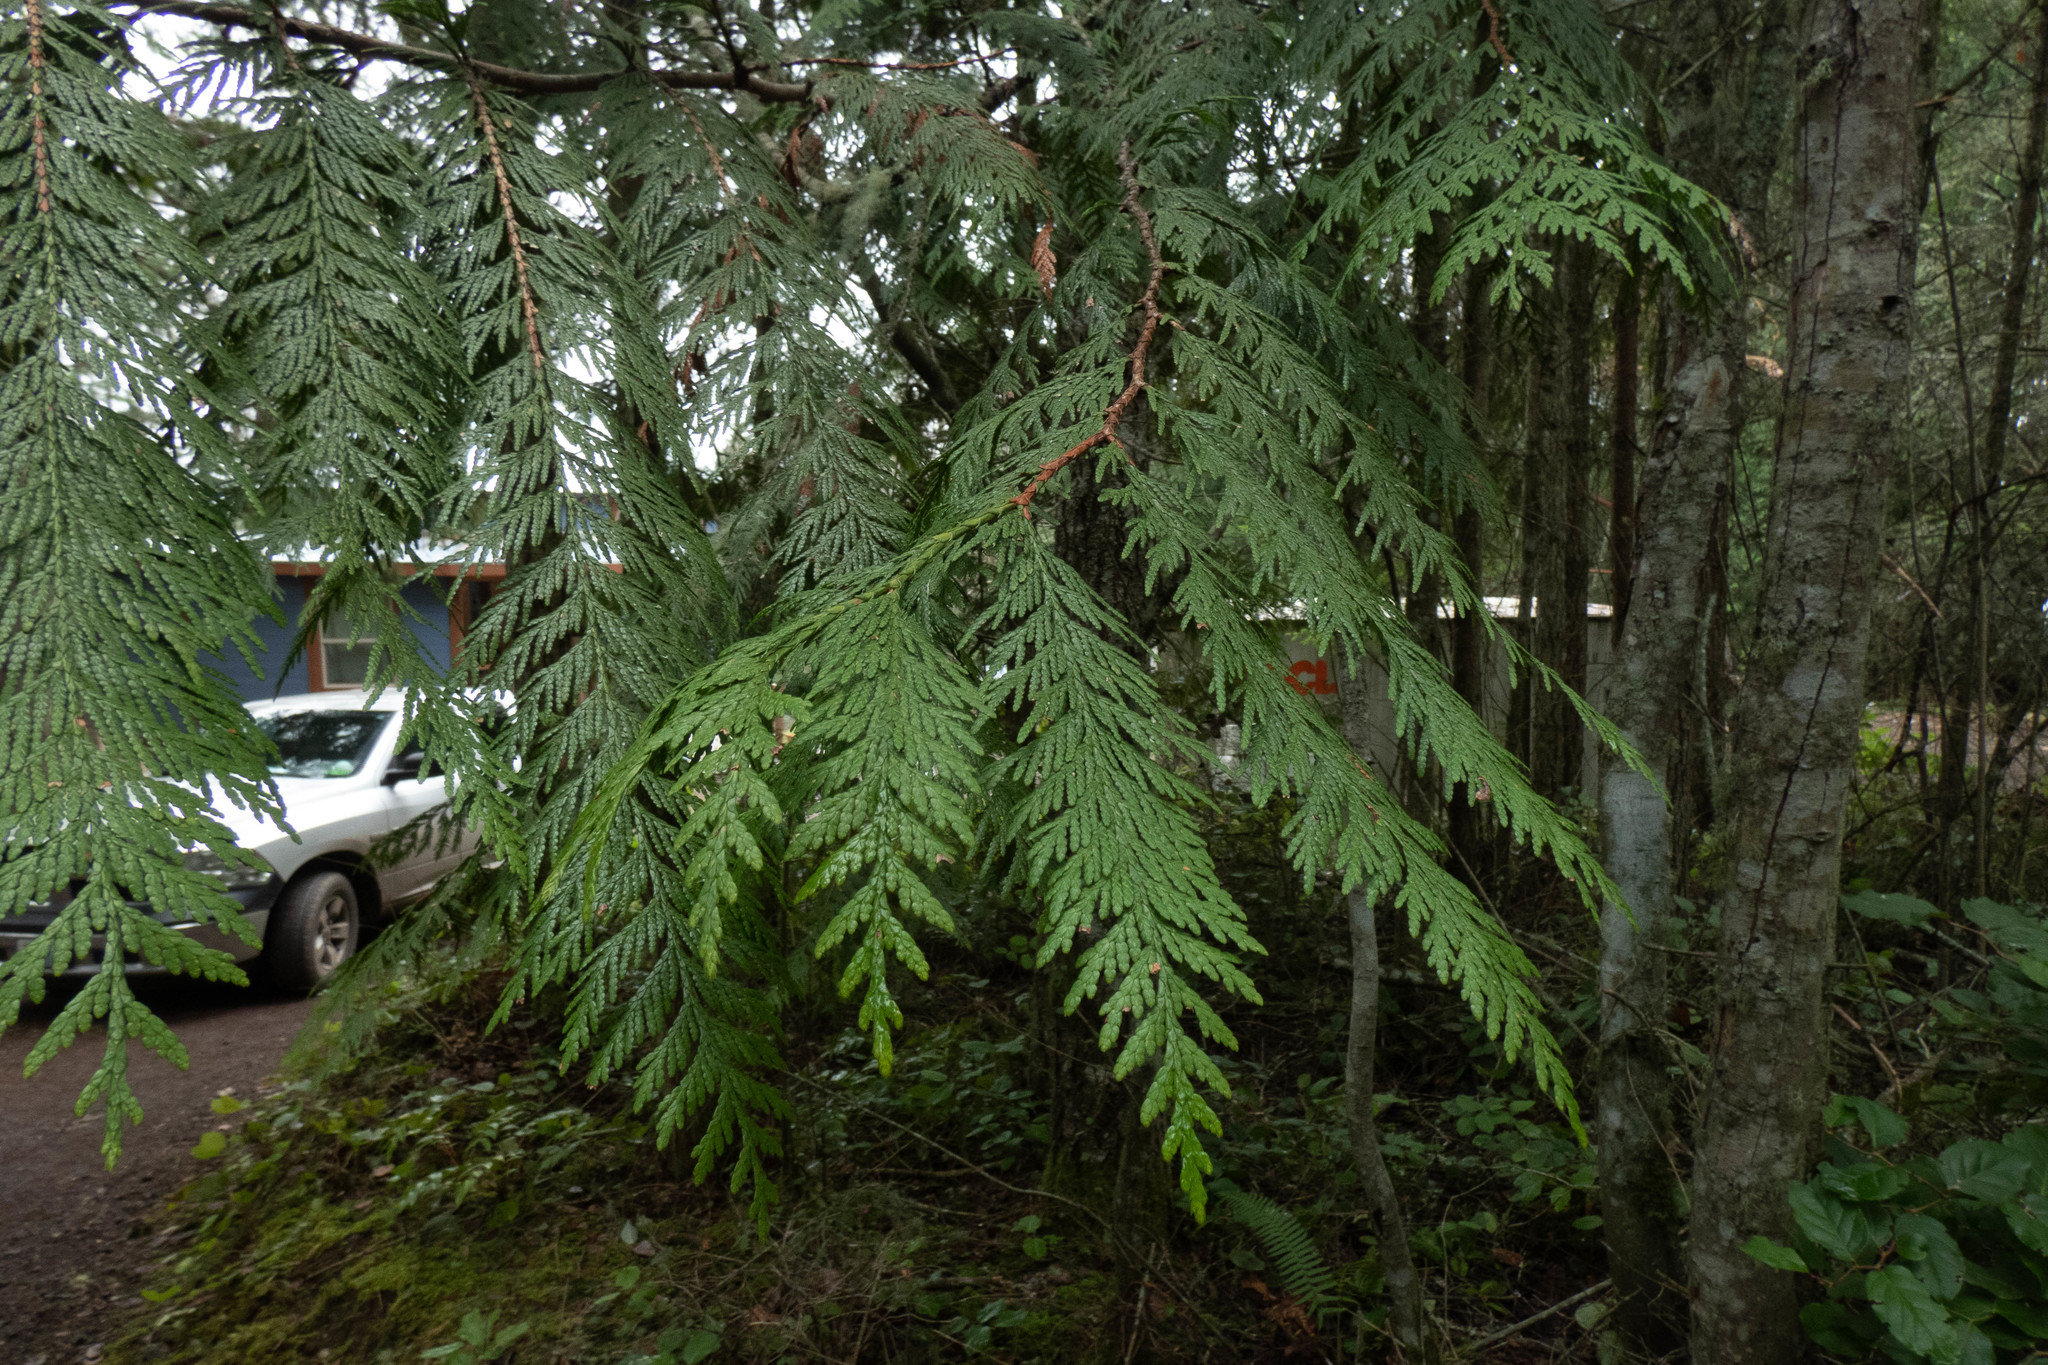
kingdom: Plantae
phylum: Tracheophyta
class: Pinopsida
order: Pinales
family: Cupressaceae
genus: Thuja
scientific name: Thuja plicata
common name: Western red-cedar
